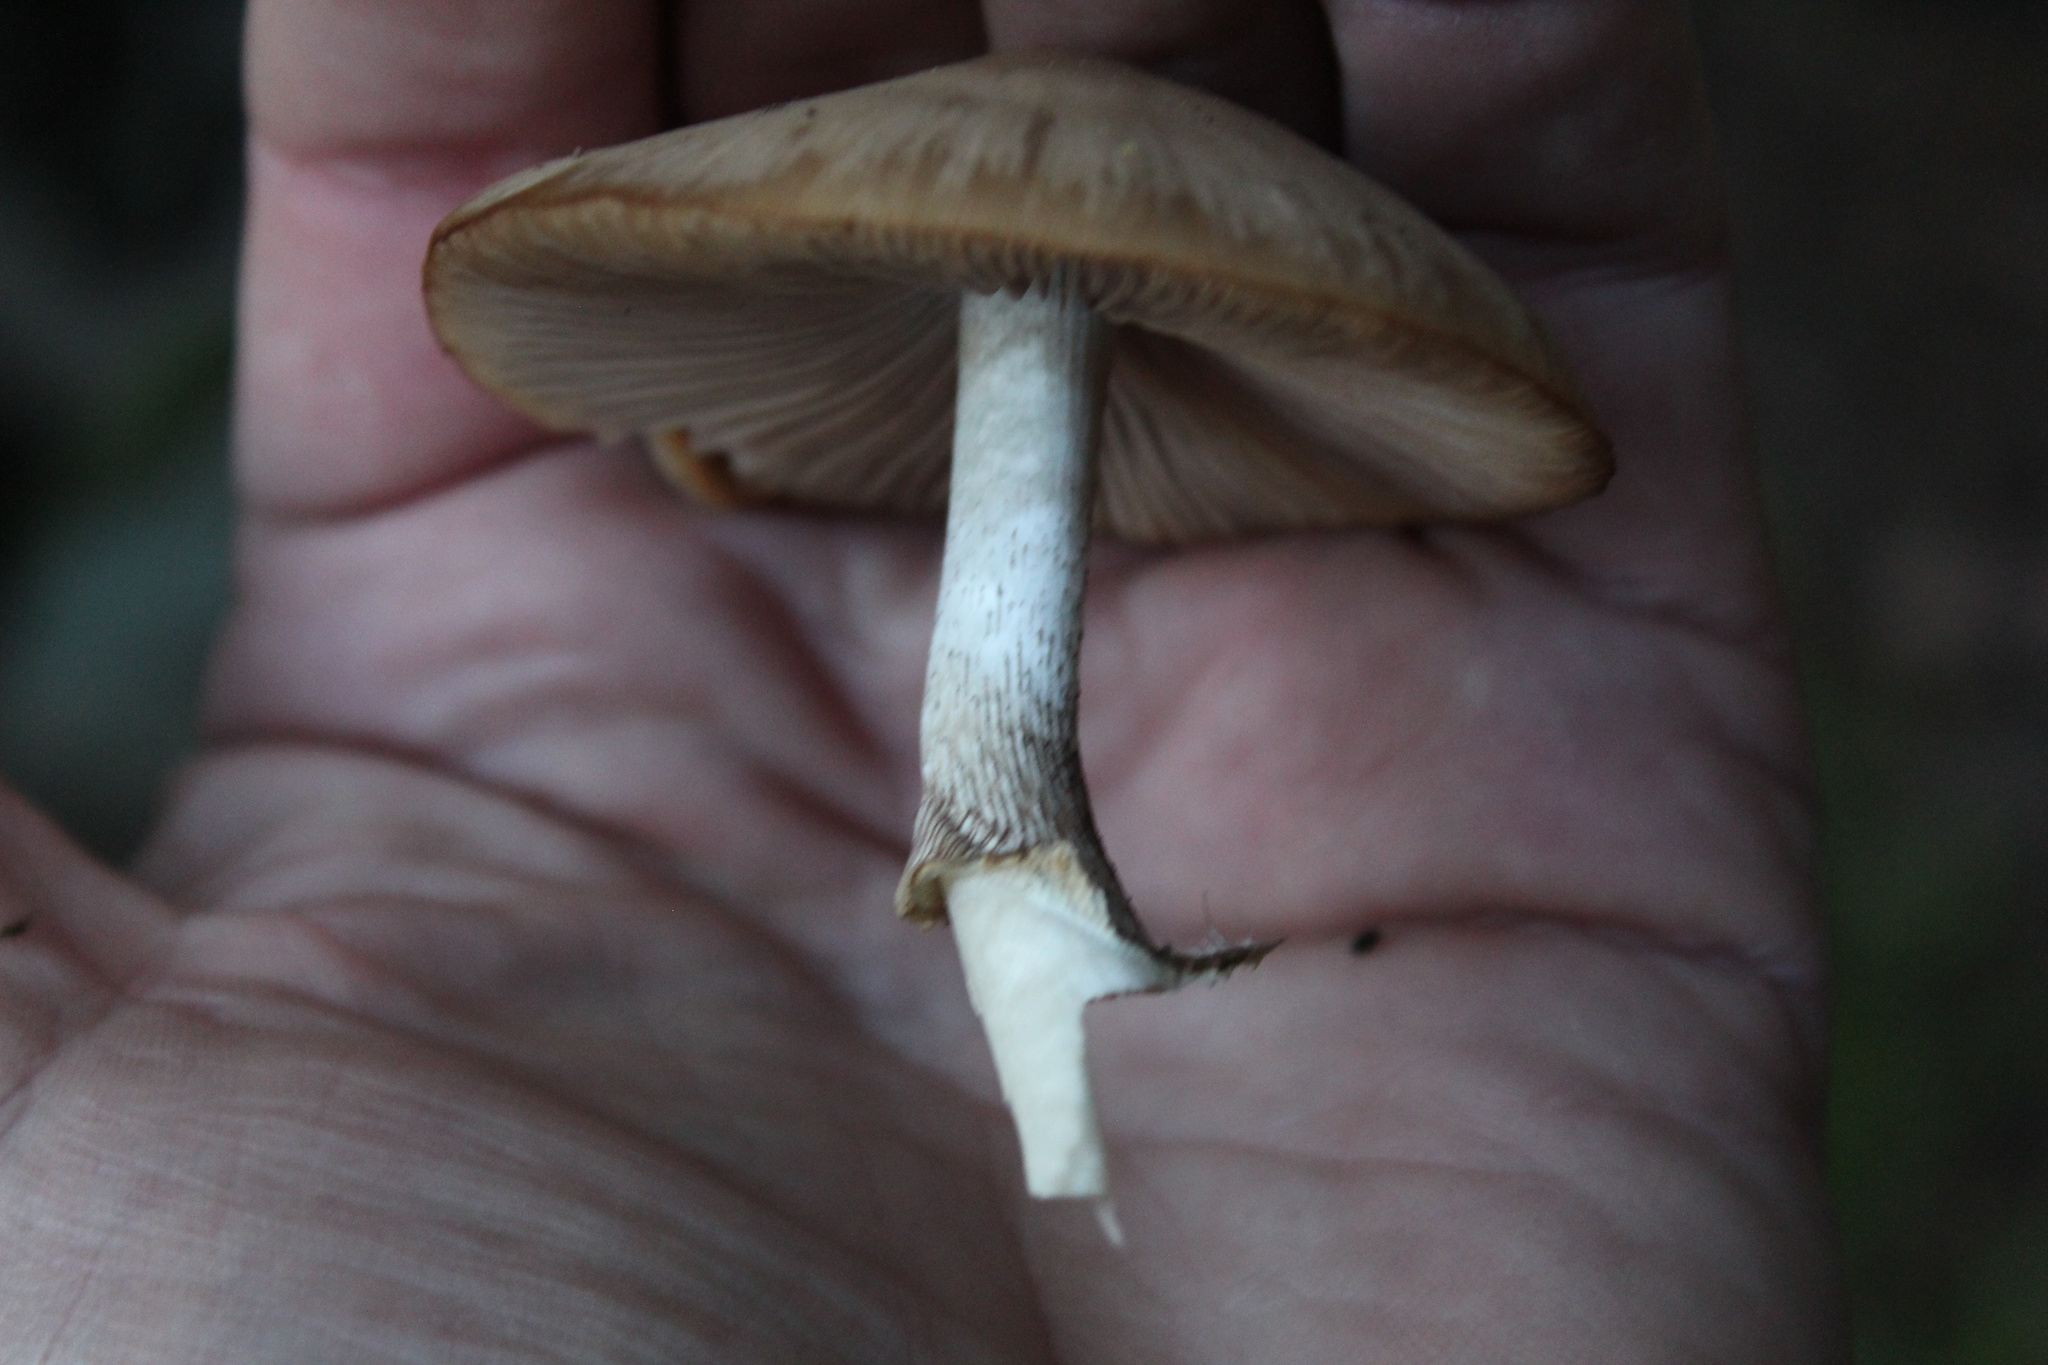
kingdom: Fungi
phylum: Basidiomycota
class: Agaricomycetes
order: Agaricales
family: Psathyrellaceae
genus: Psathyrella
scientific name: Psathyrella longipes
